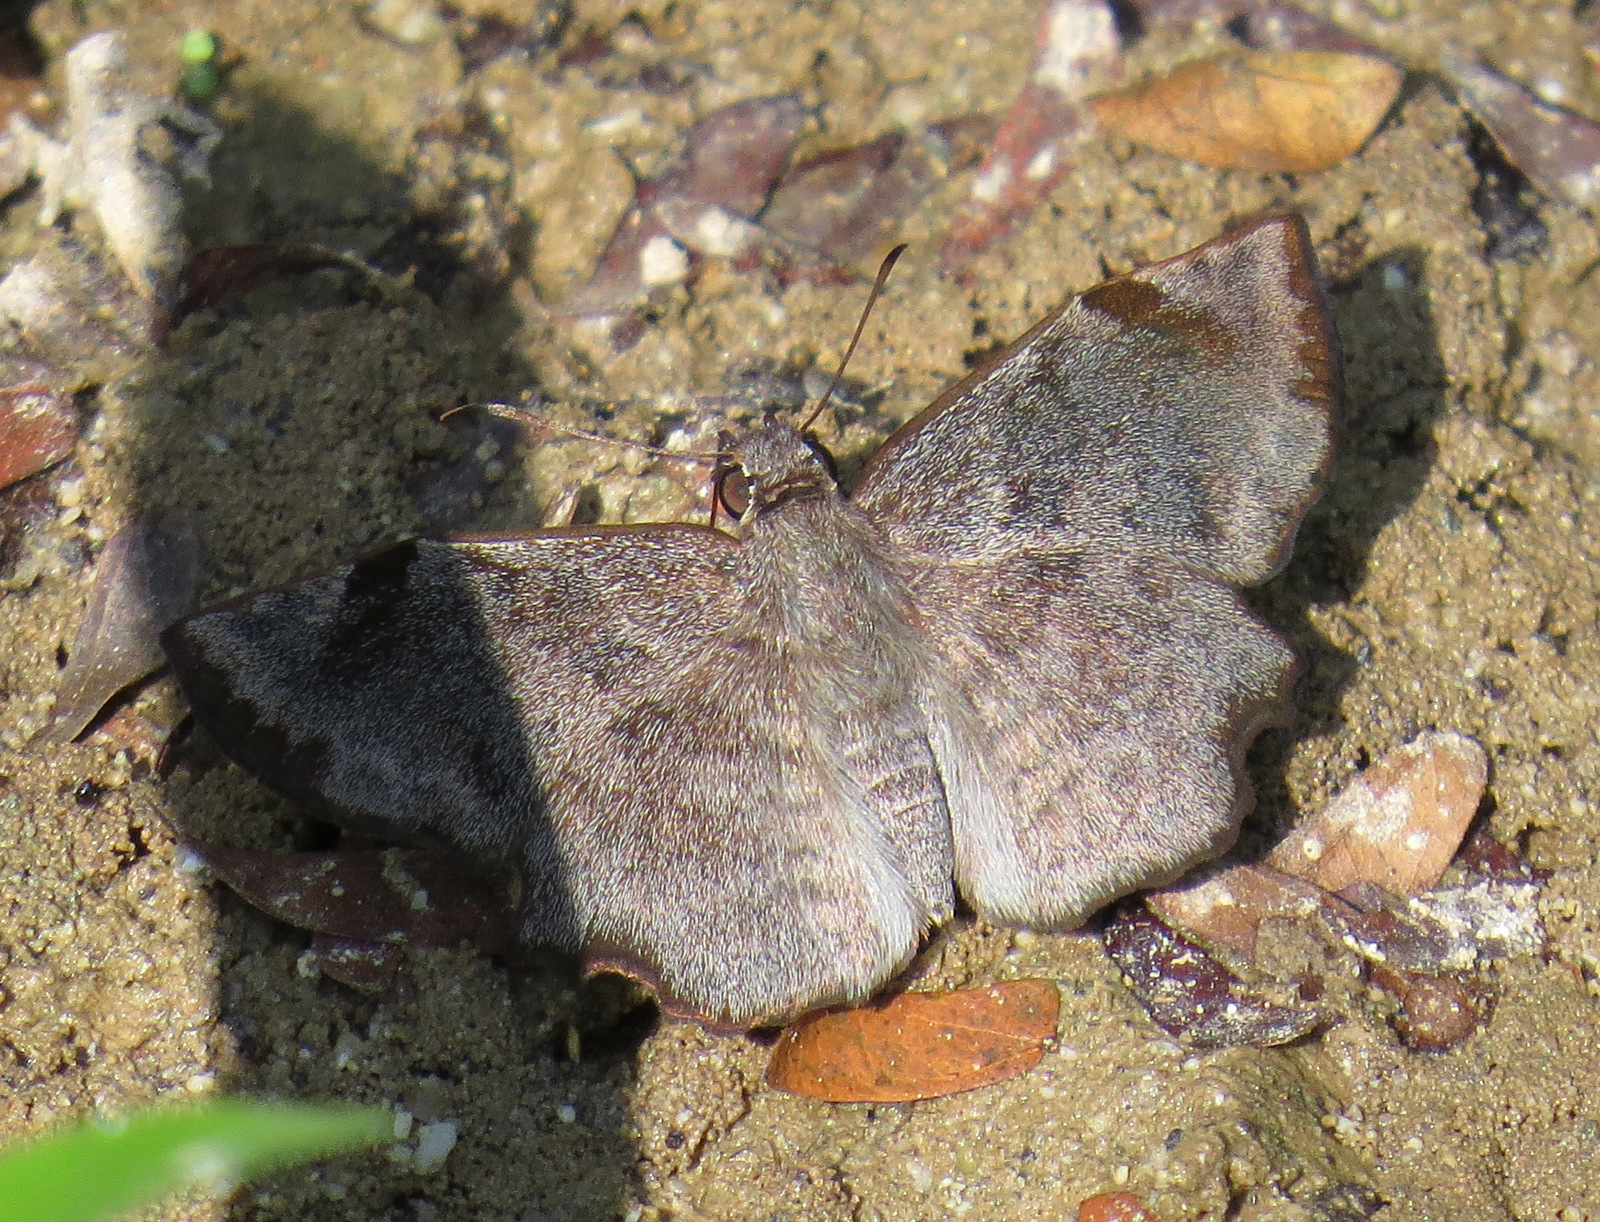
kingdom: Animalia
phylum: Arthropoda
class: Insecta
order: Lepidoptera
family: Hesperiidae
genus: Antigonus
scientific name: Antigonus erosus
